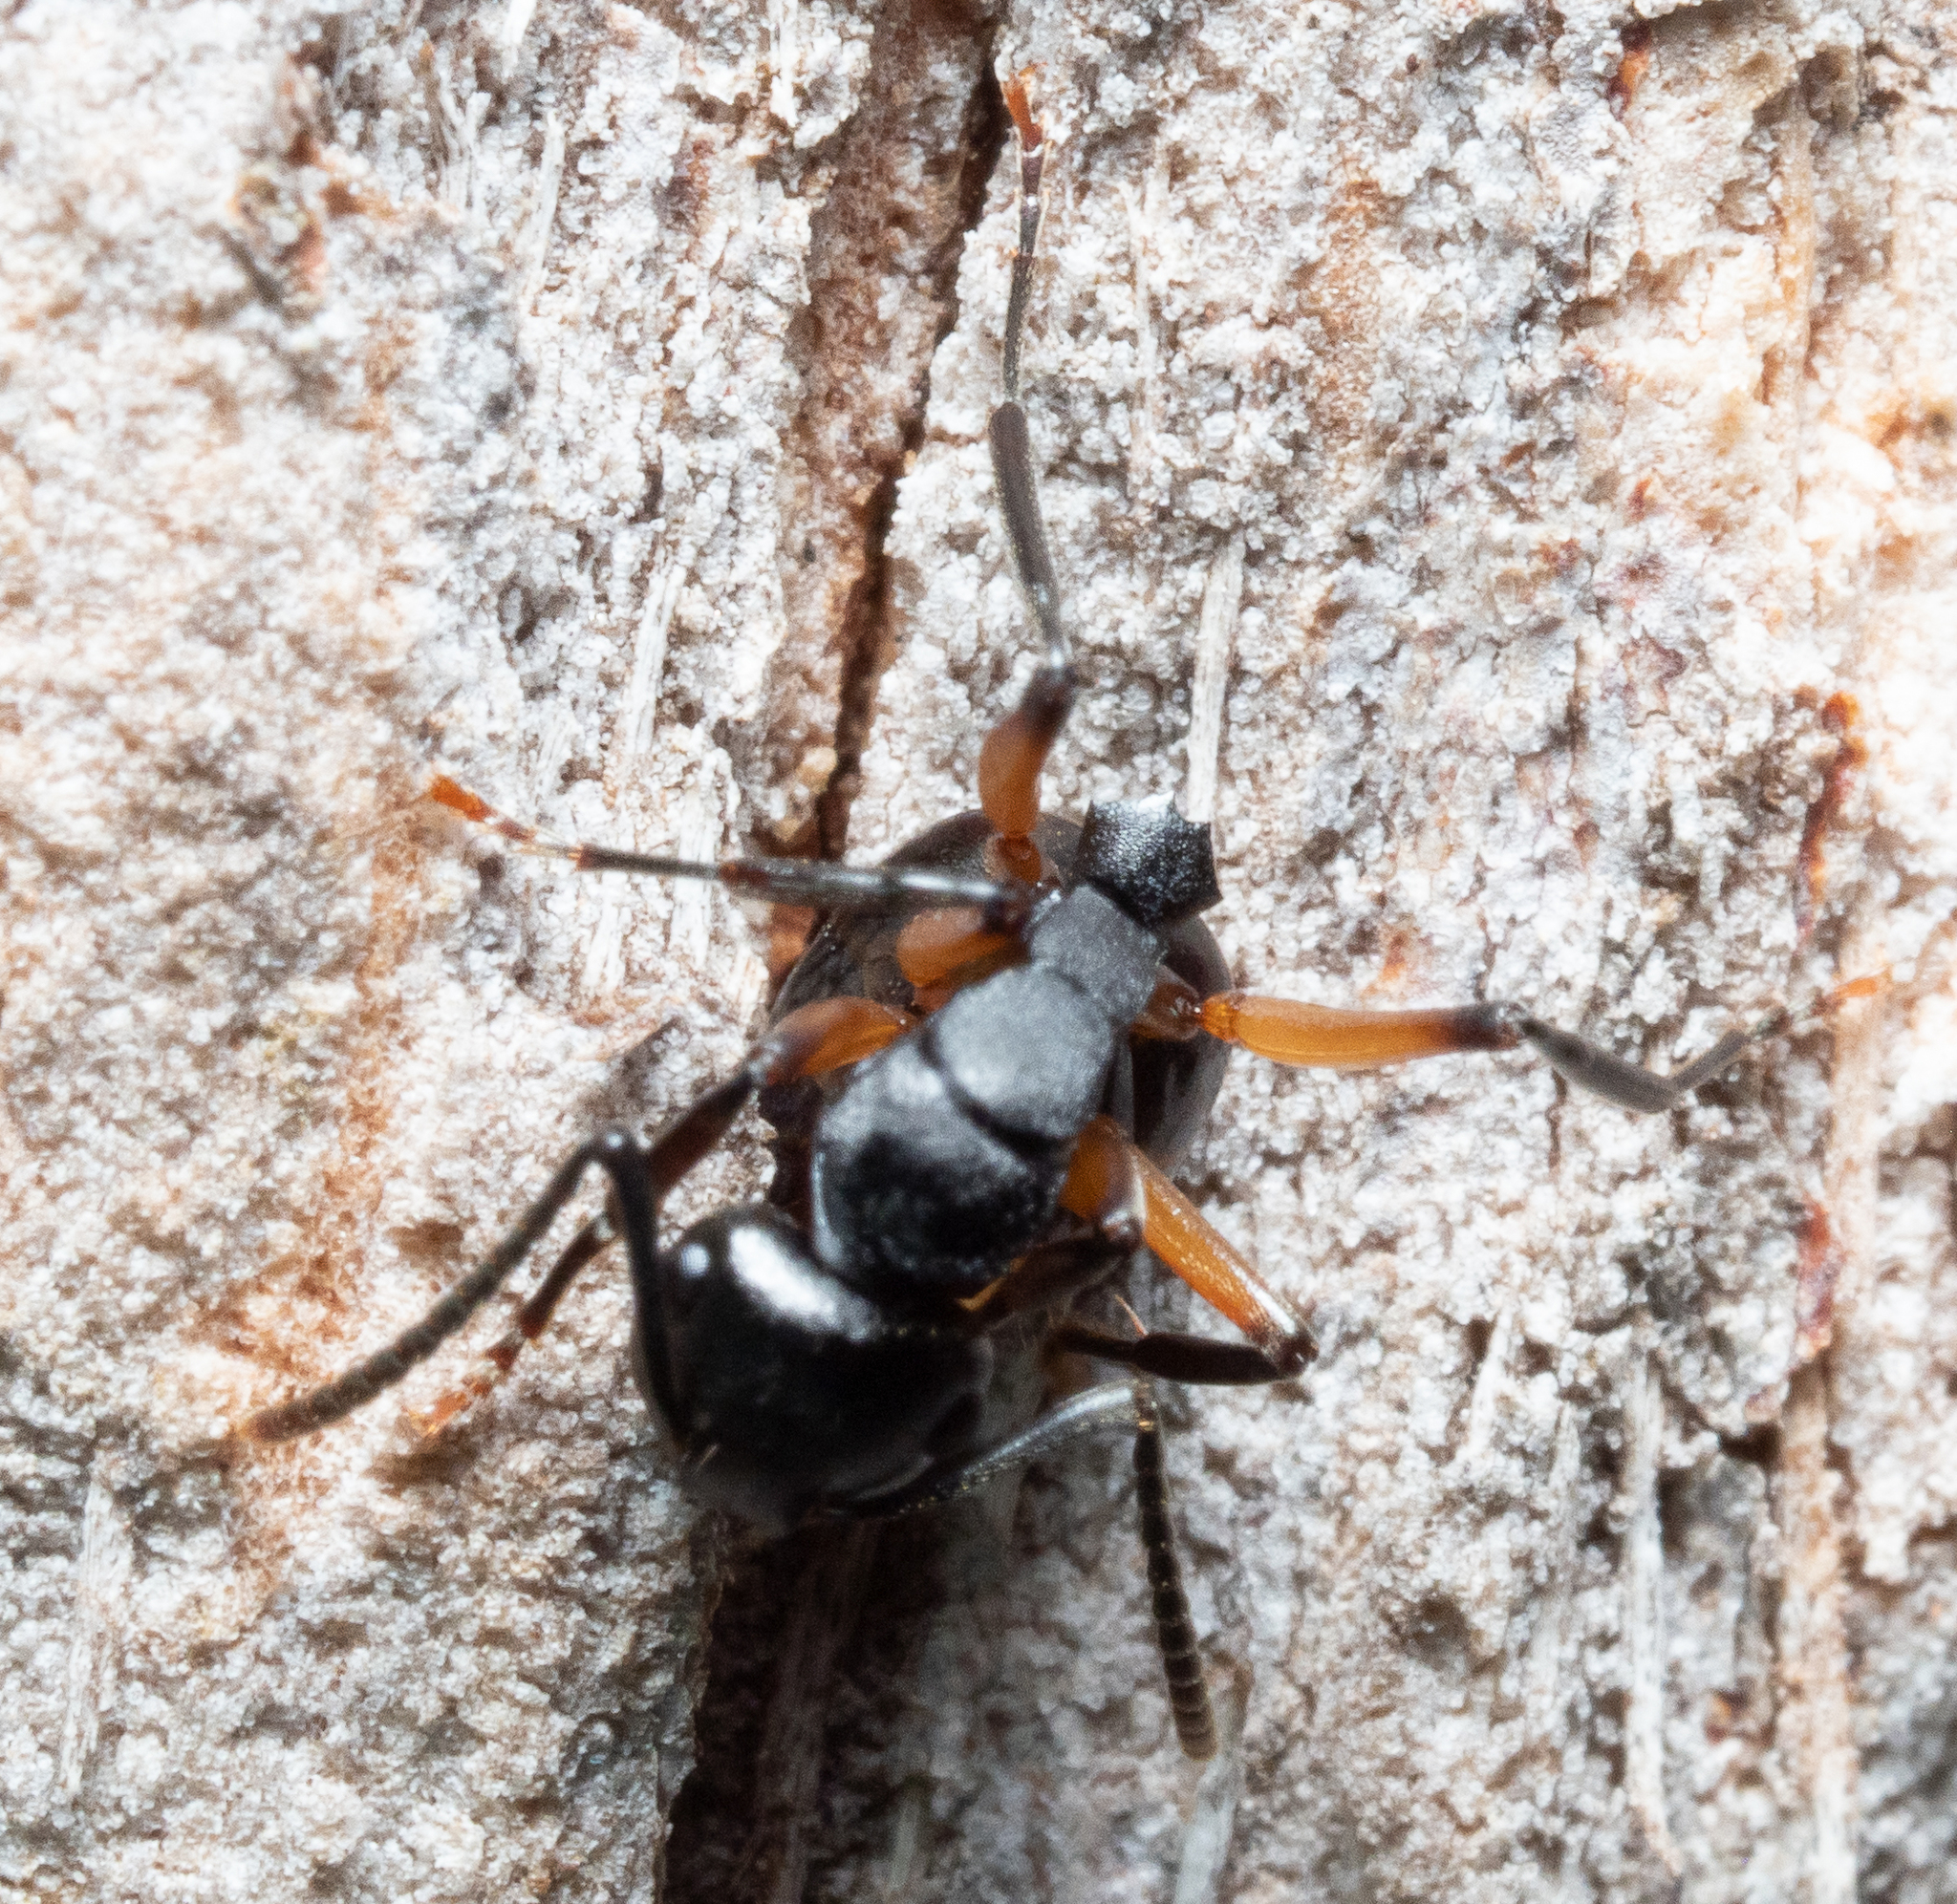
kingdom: Animalia
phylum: Arthropoda
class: Insecta
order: Hymenoptera
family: Formicidae
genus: Polyrhachis
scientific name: Polyrhachis femorata
